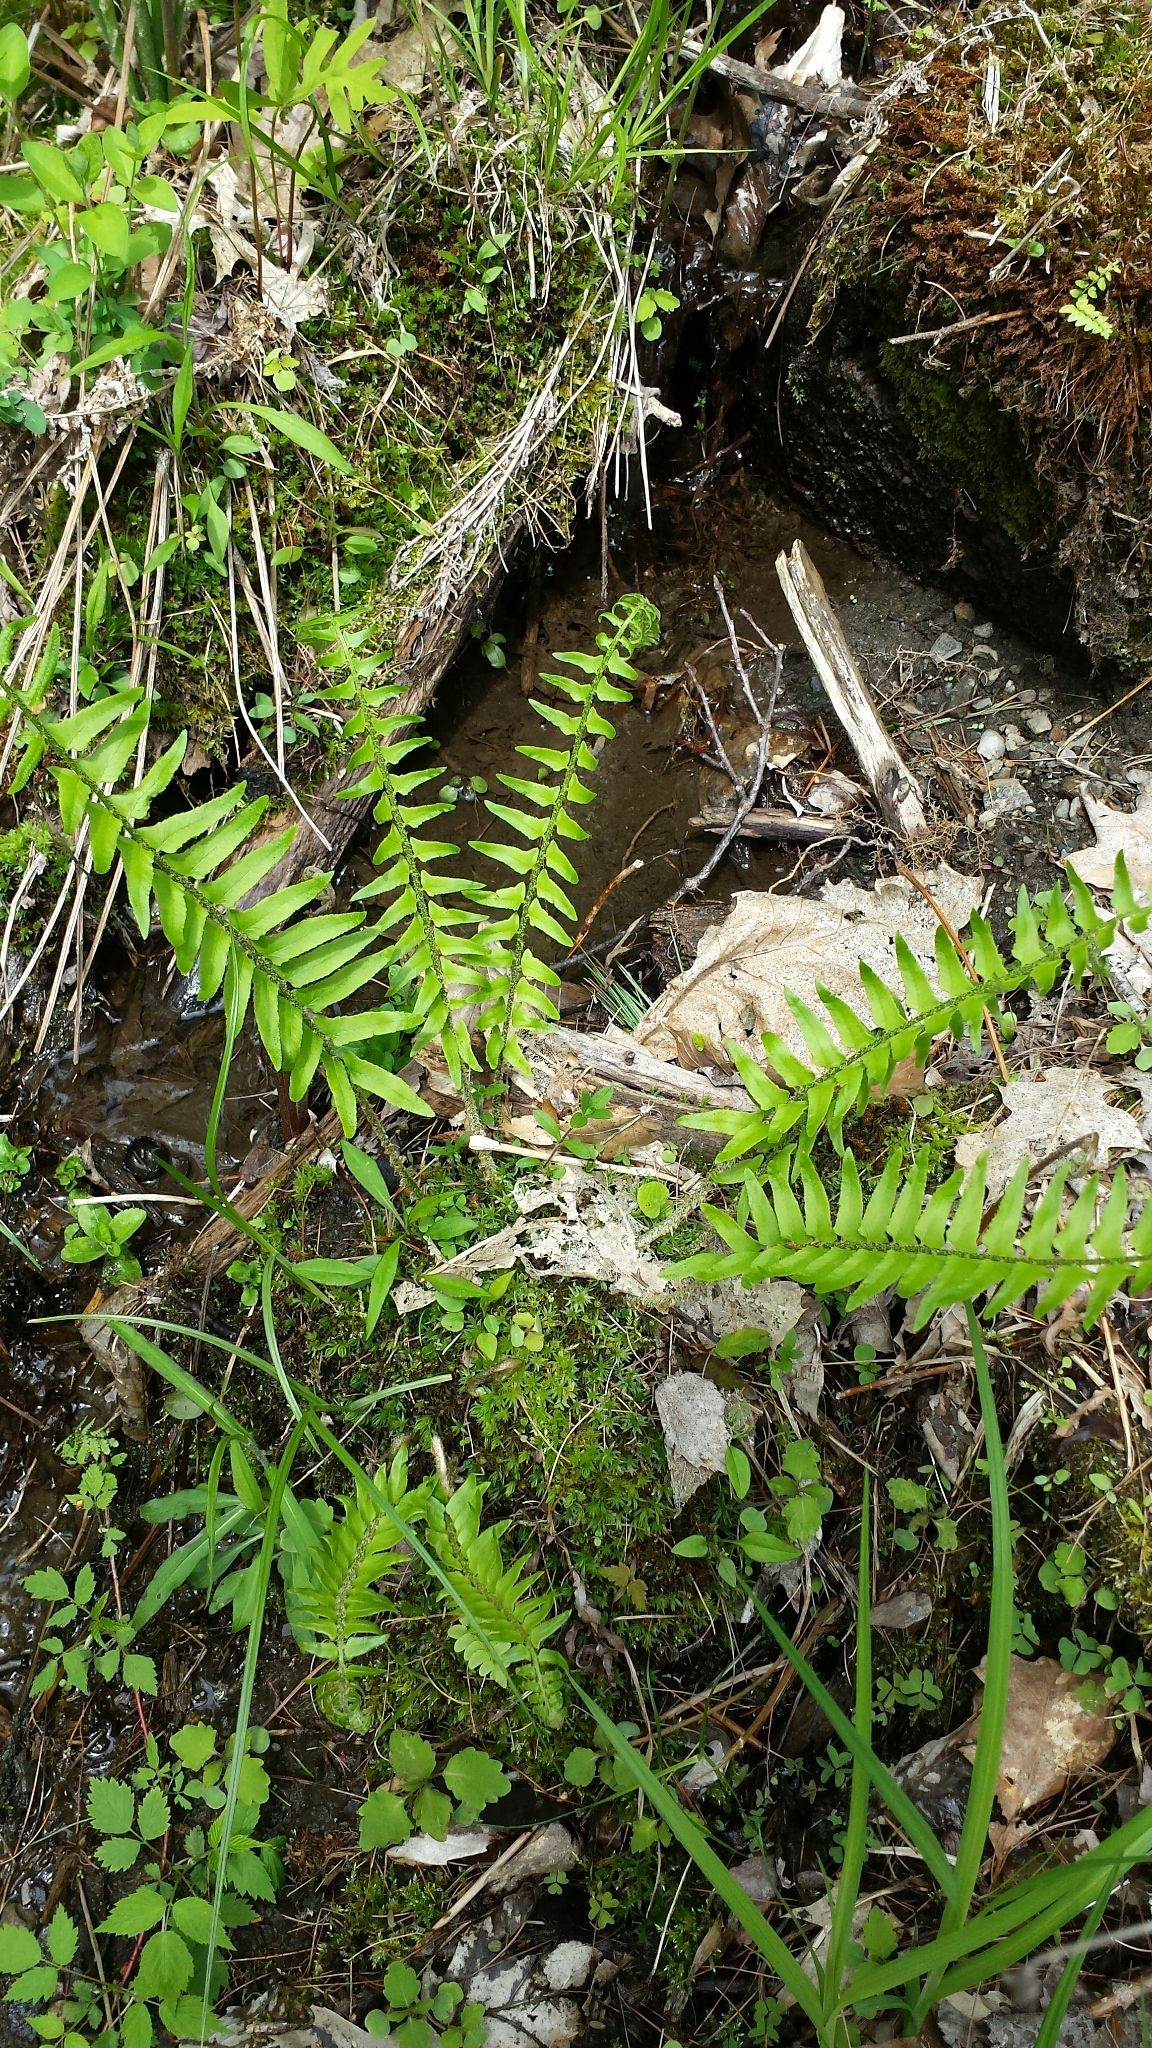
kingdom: Plantae
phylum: Tracheophyta
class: Polypodiopsida
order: Polypodiales
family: Dryopteridaceae
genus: Polystichum
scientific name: Polystichum acrostichoides
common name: Christmas fern
